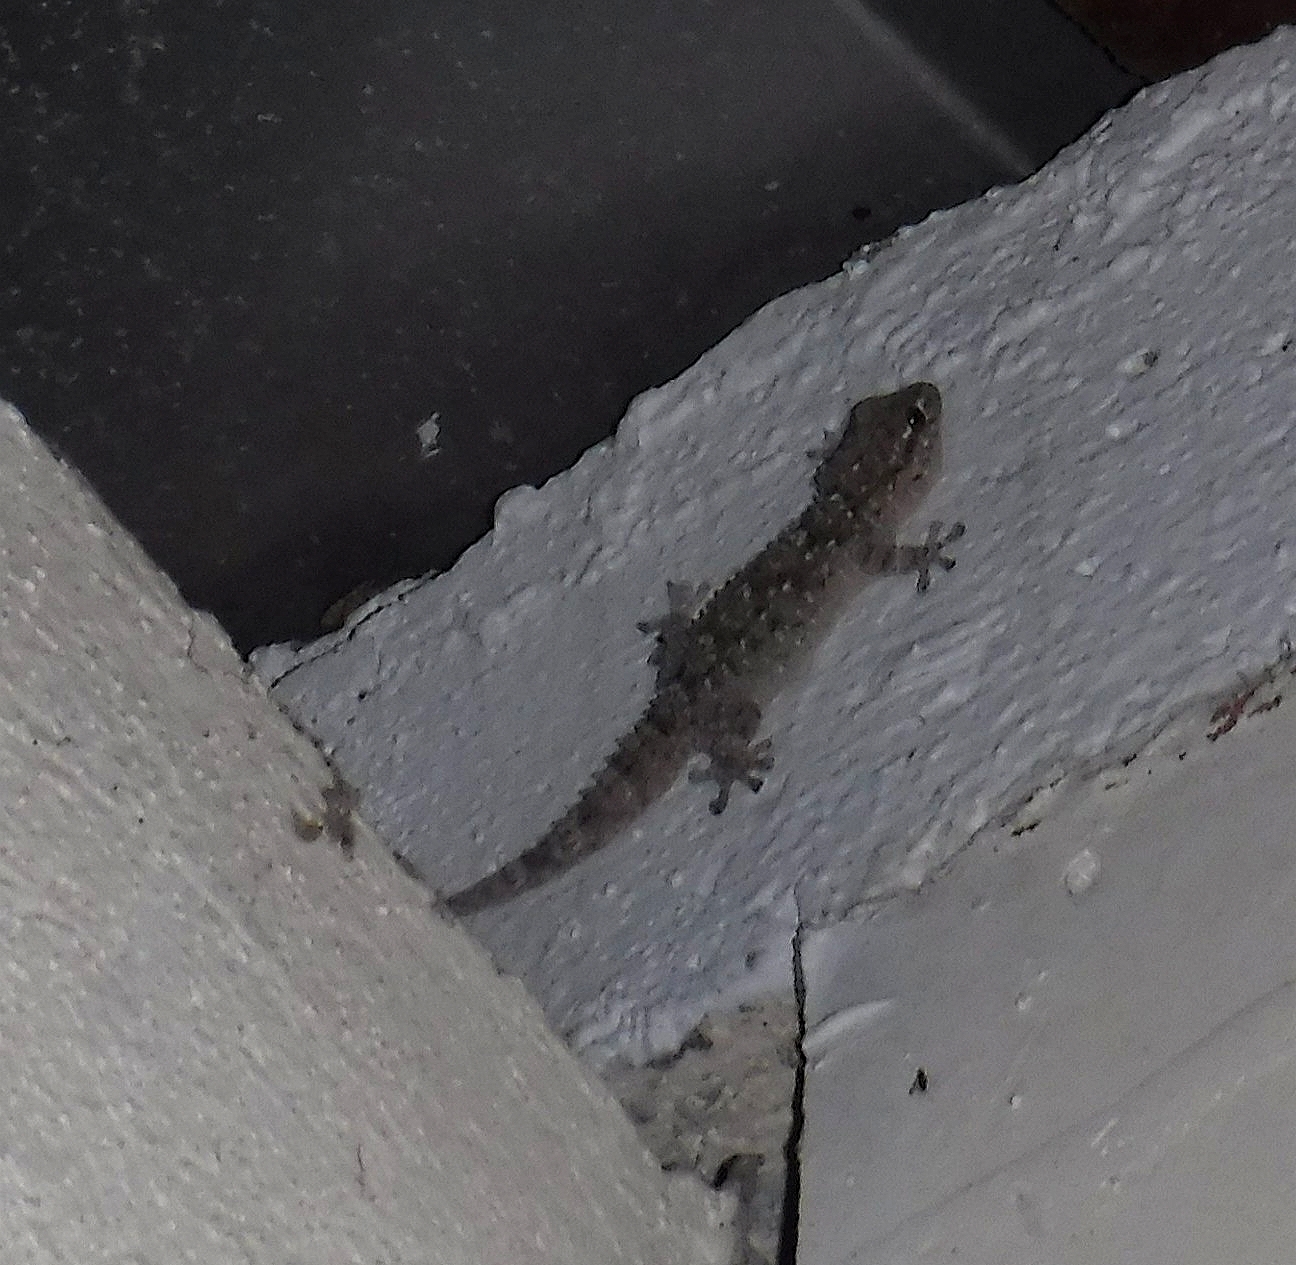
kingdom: Animalia
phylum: Chordata
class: Squamata
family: Phyllodactylidae
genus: Tarentola
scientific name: Tarentola mauritanica
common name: Moorish gecko
